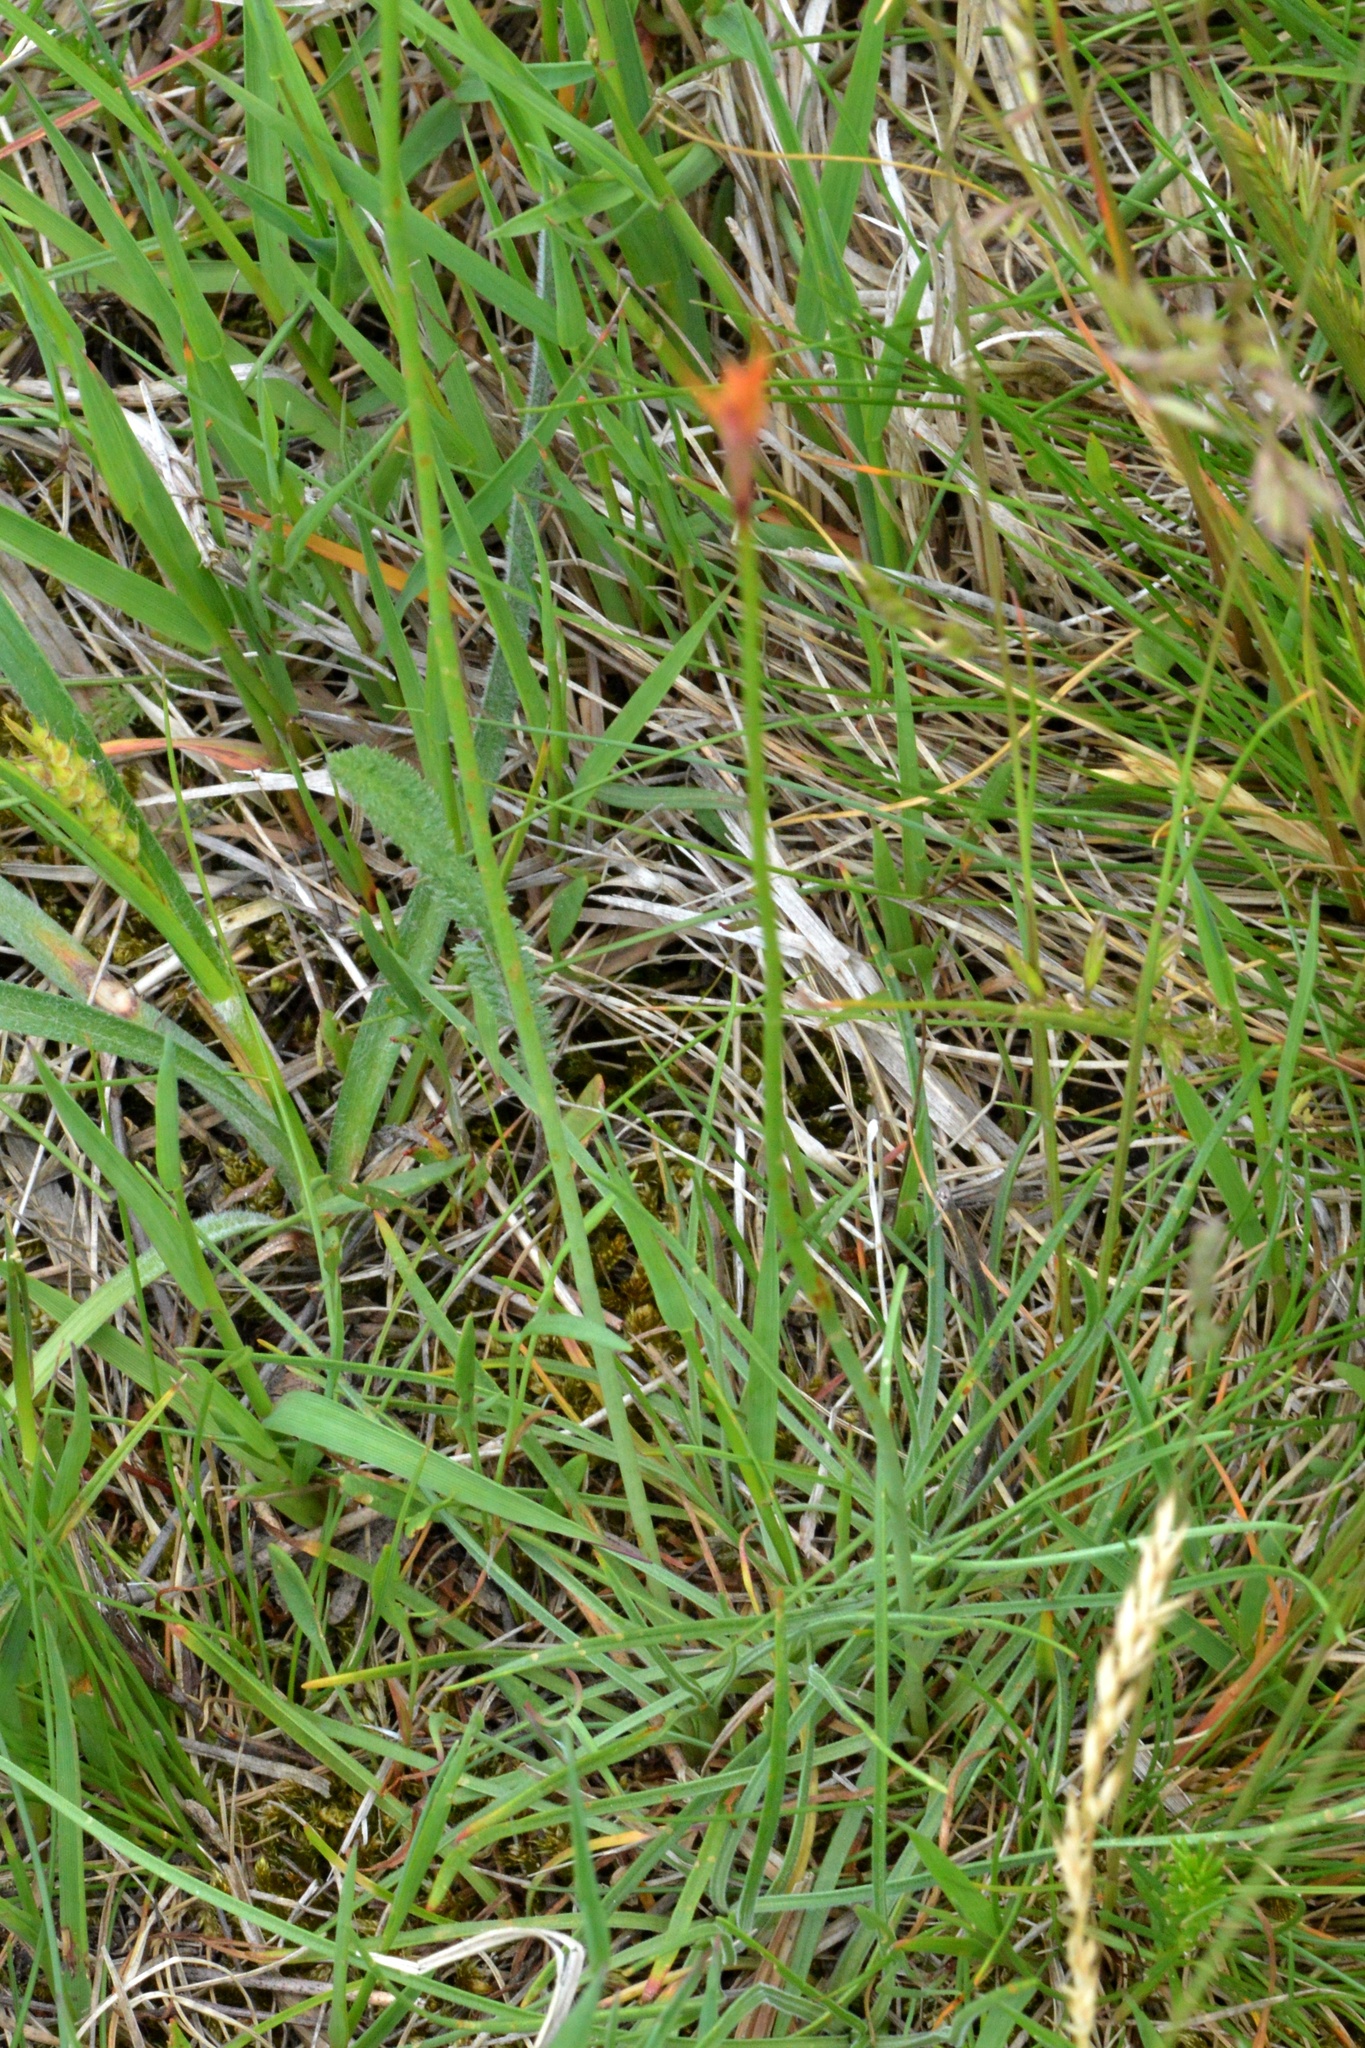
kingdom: Plantae
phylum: Tracheophyta
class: Magnoliopsida
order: Caryophyllales
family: Plumbaginaceae
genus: Armeria
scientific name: Armeria maritima
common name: Thrift
